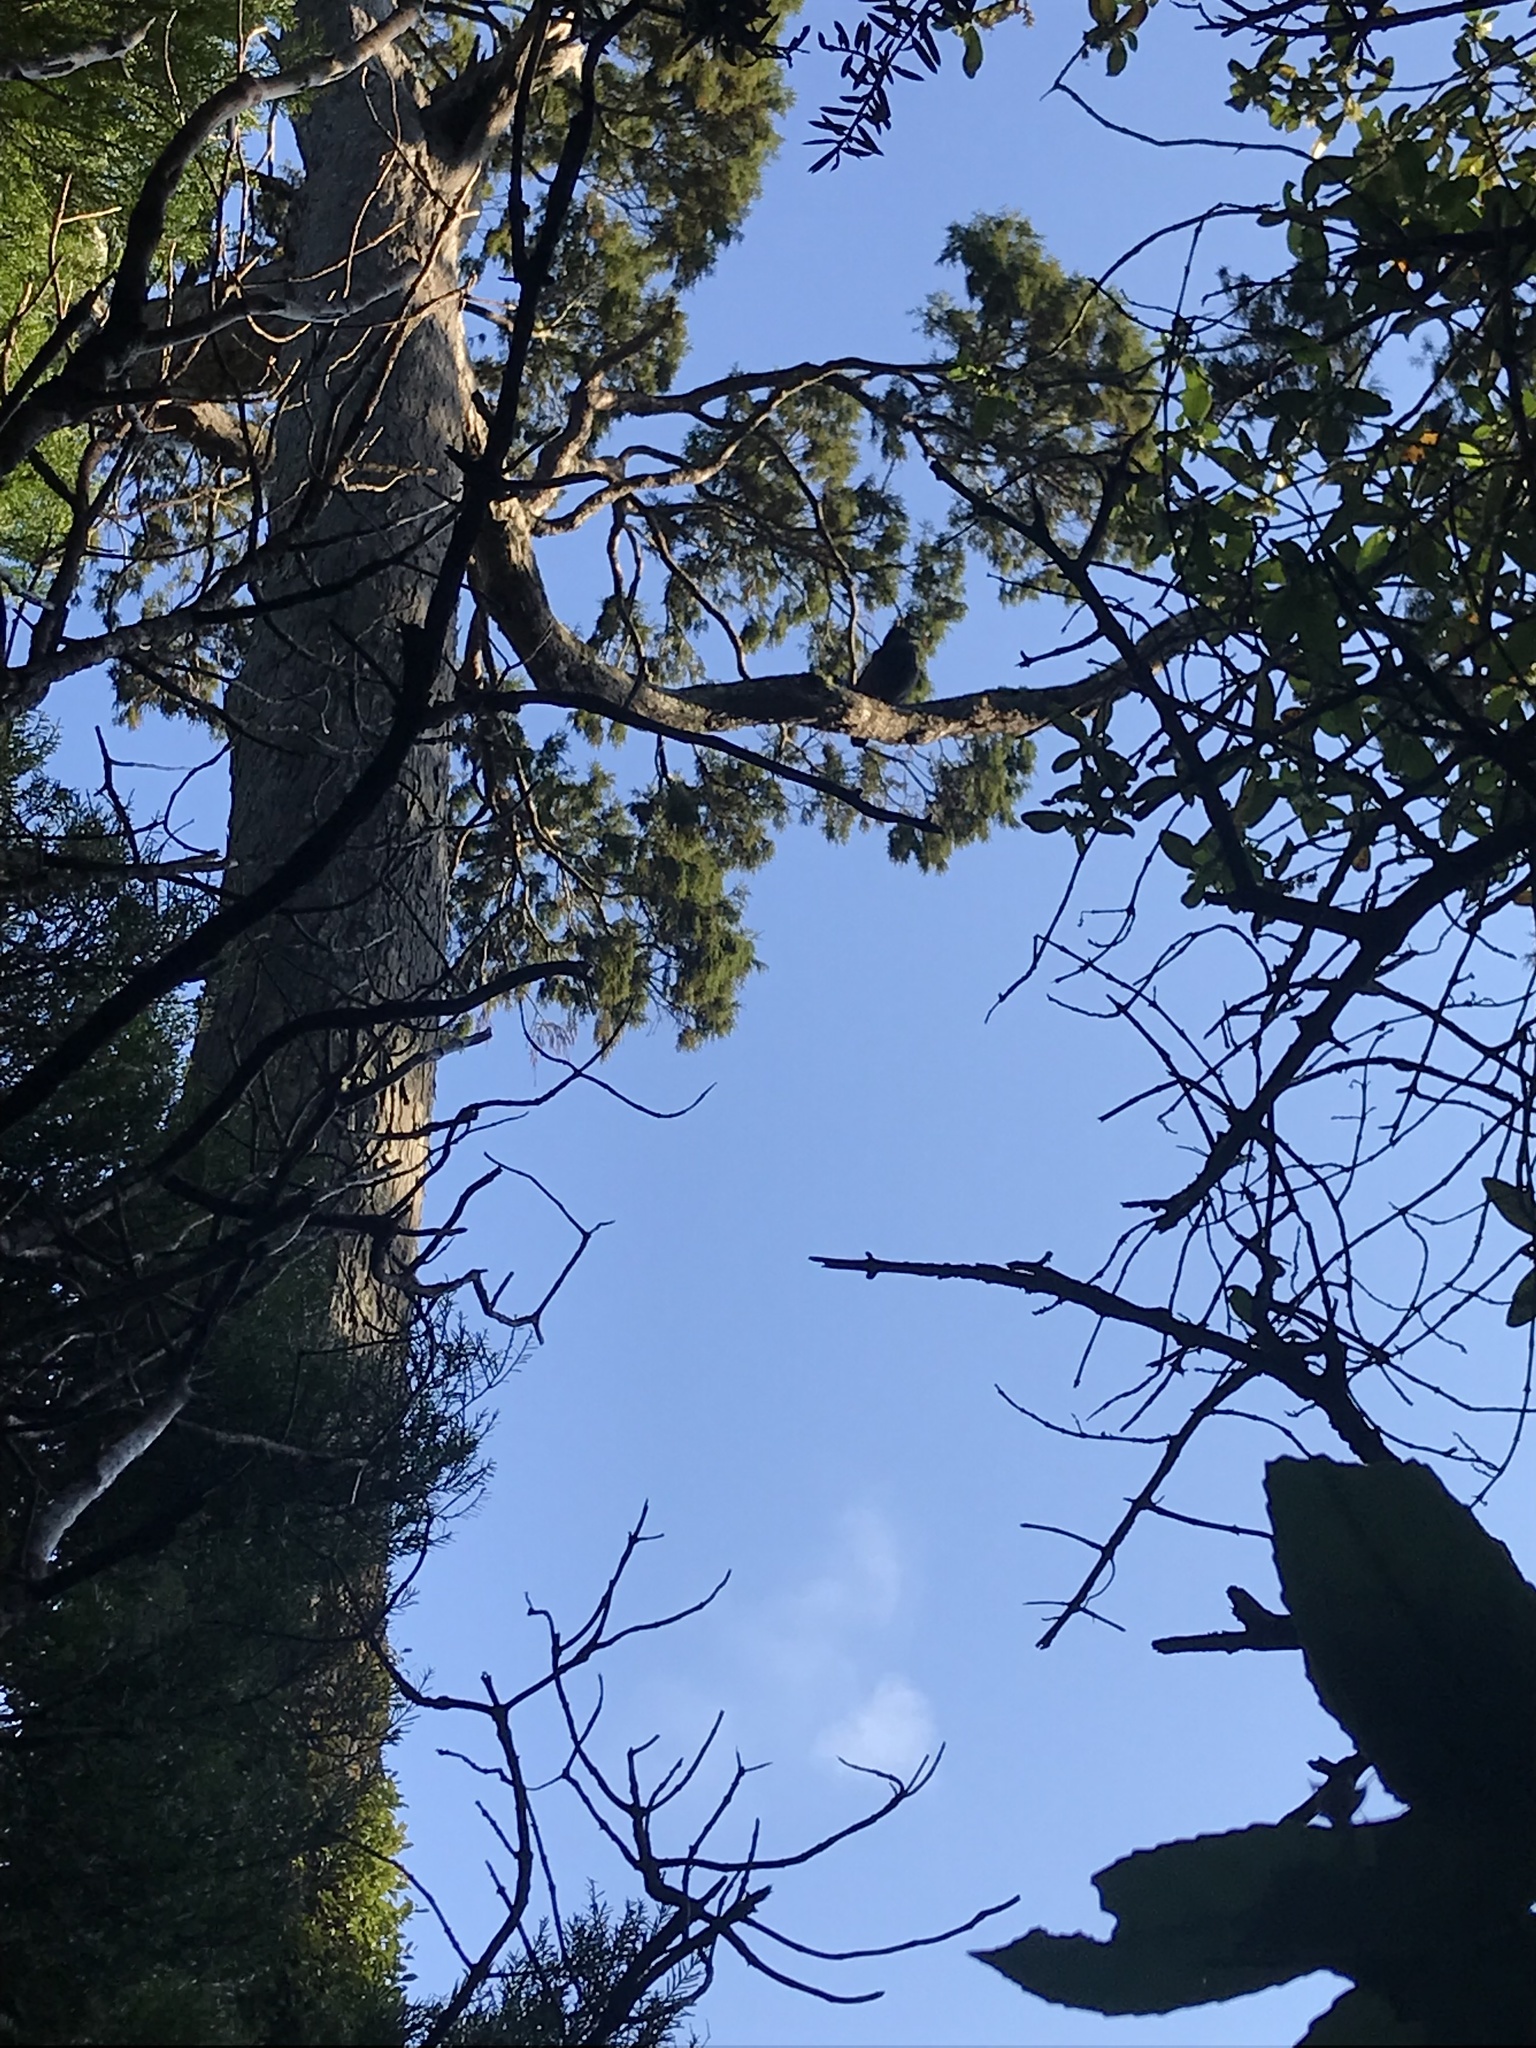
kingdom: Animalia
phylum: Chordata
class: Aves
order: Anseriformes
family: Anatidae
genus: Tadorna
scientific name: Tadorna variegata
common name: Paradise shelduck
